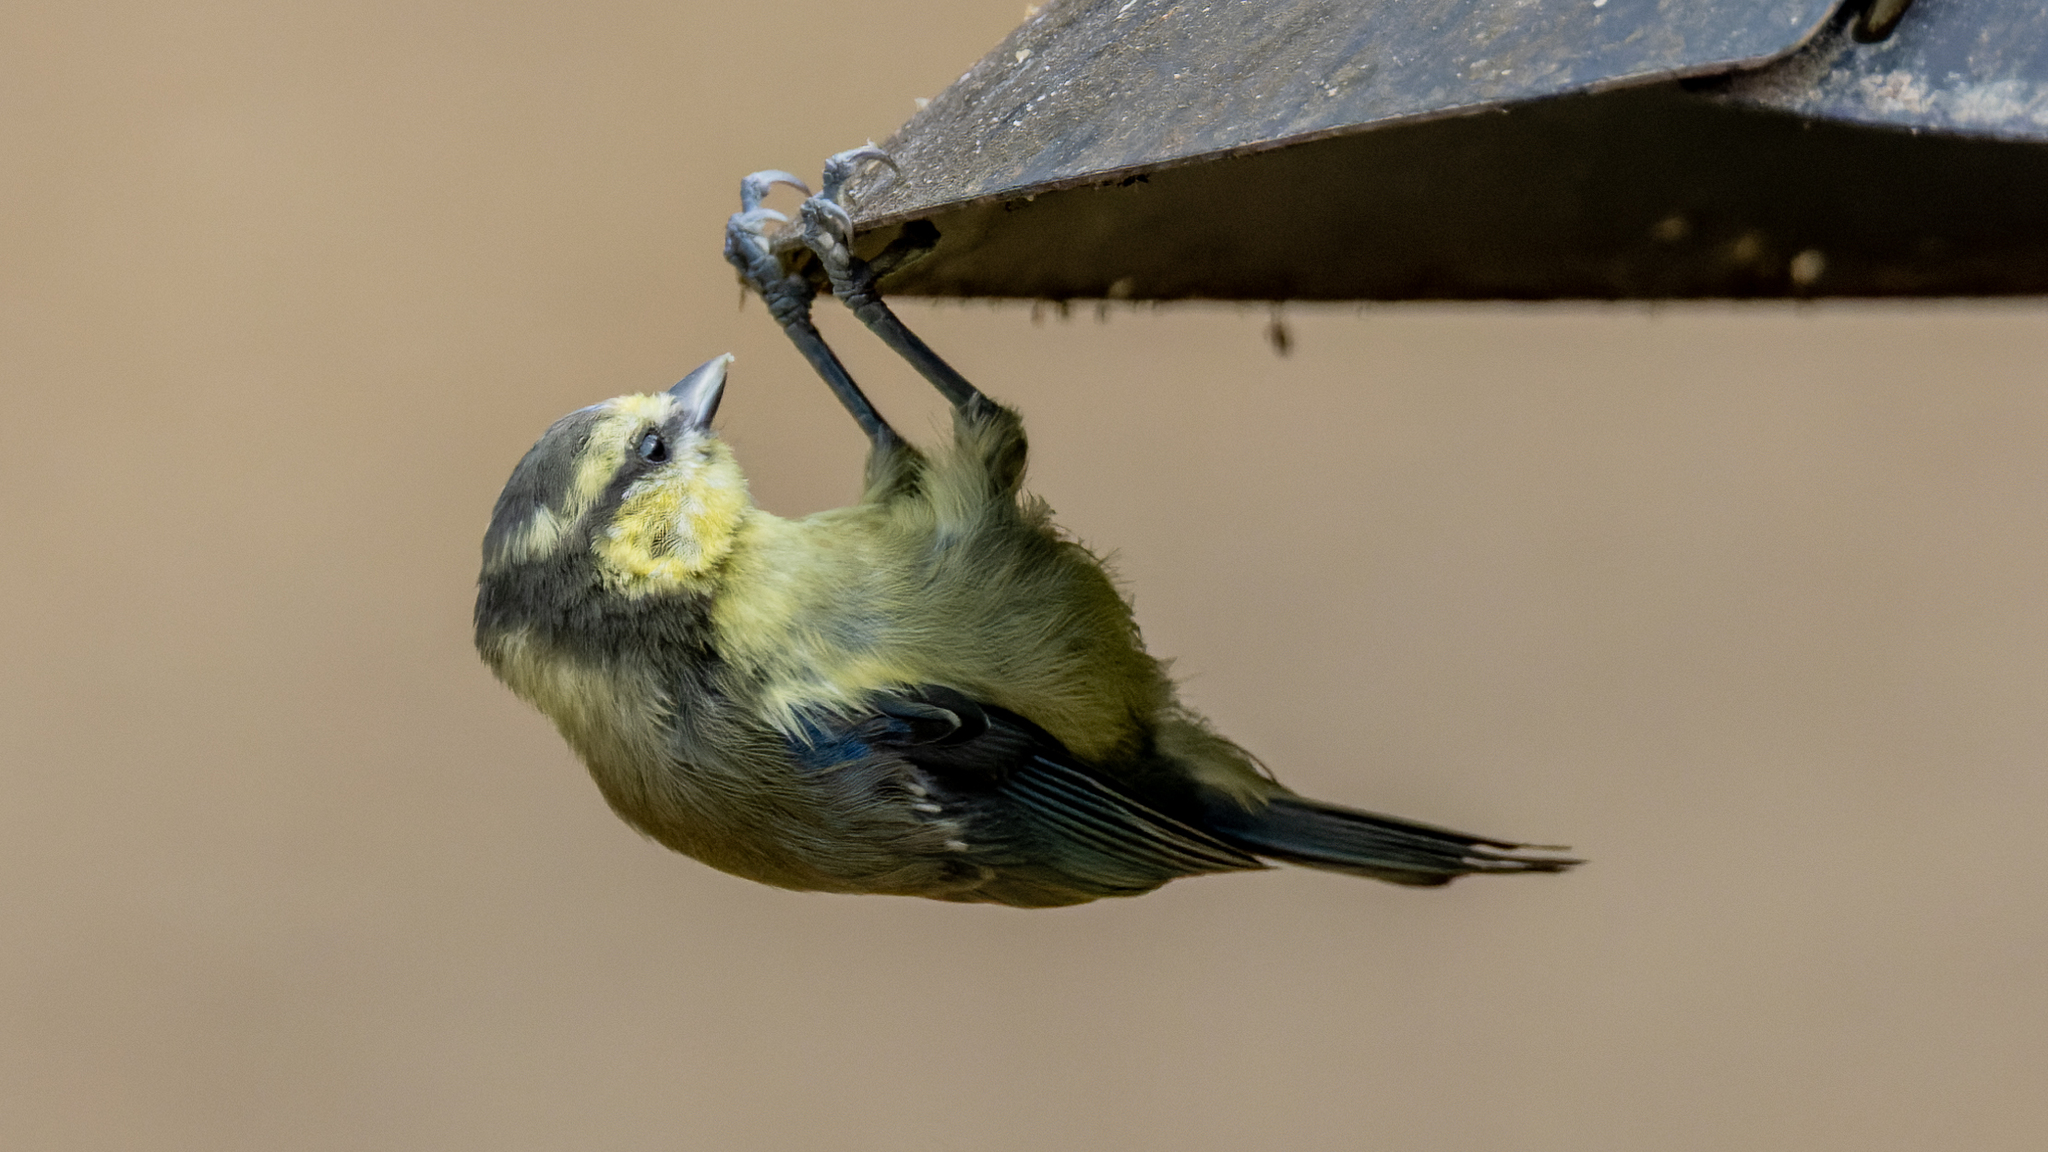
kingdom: Animalia
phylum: Chordata
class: Aves
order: Passeriformes
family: Paridae
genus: Cyanistes
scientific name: Cyanistes caeruleus
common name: Eurasian blue tit
